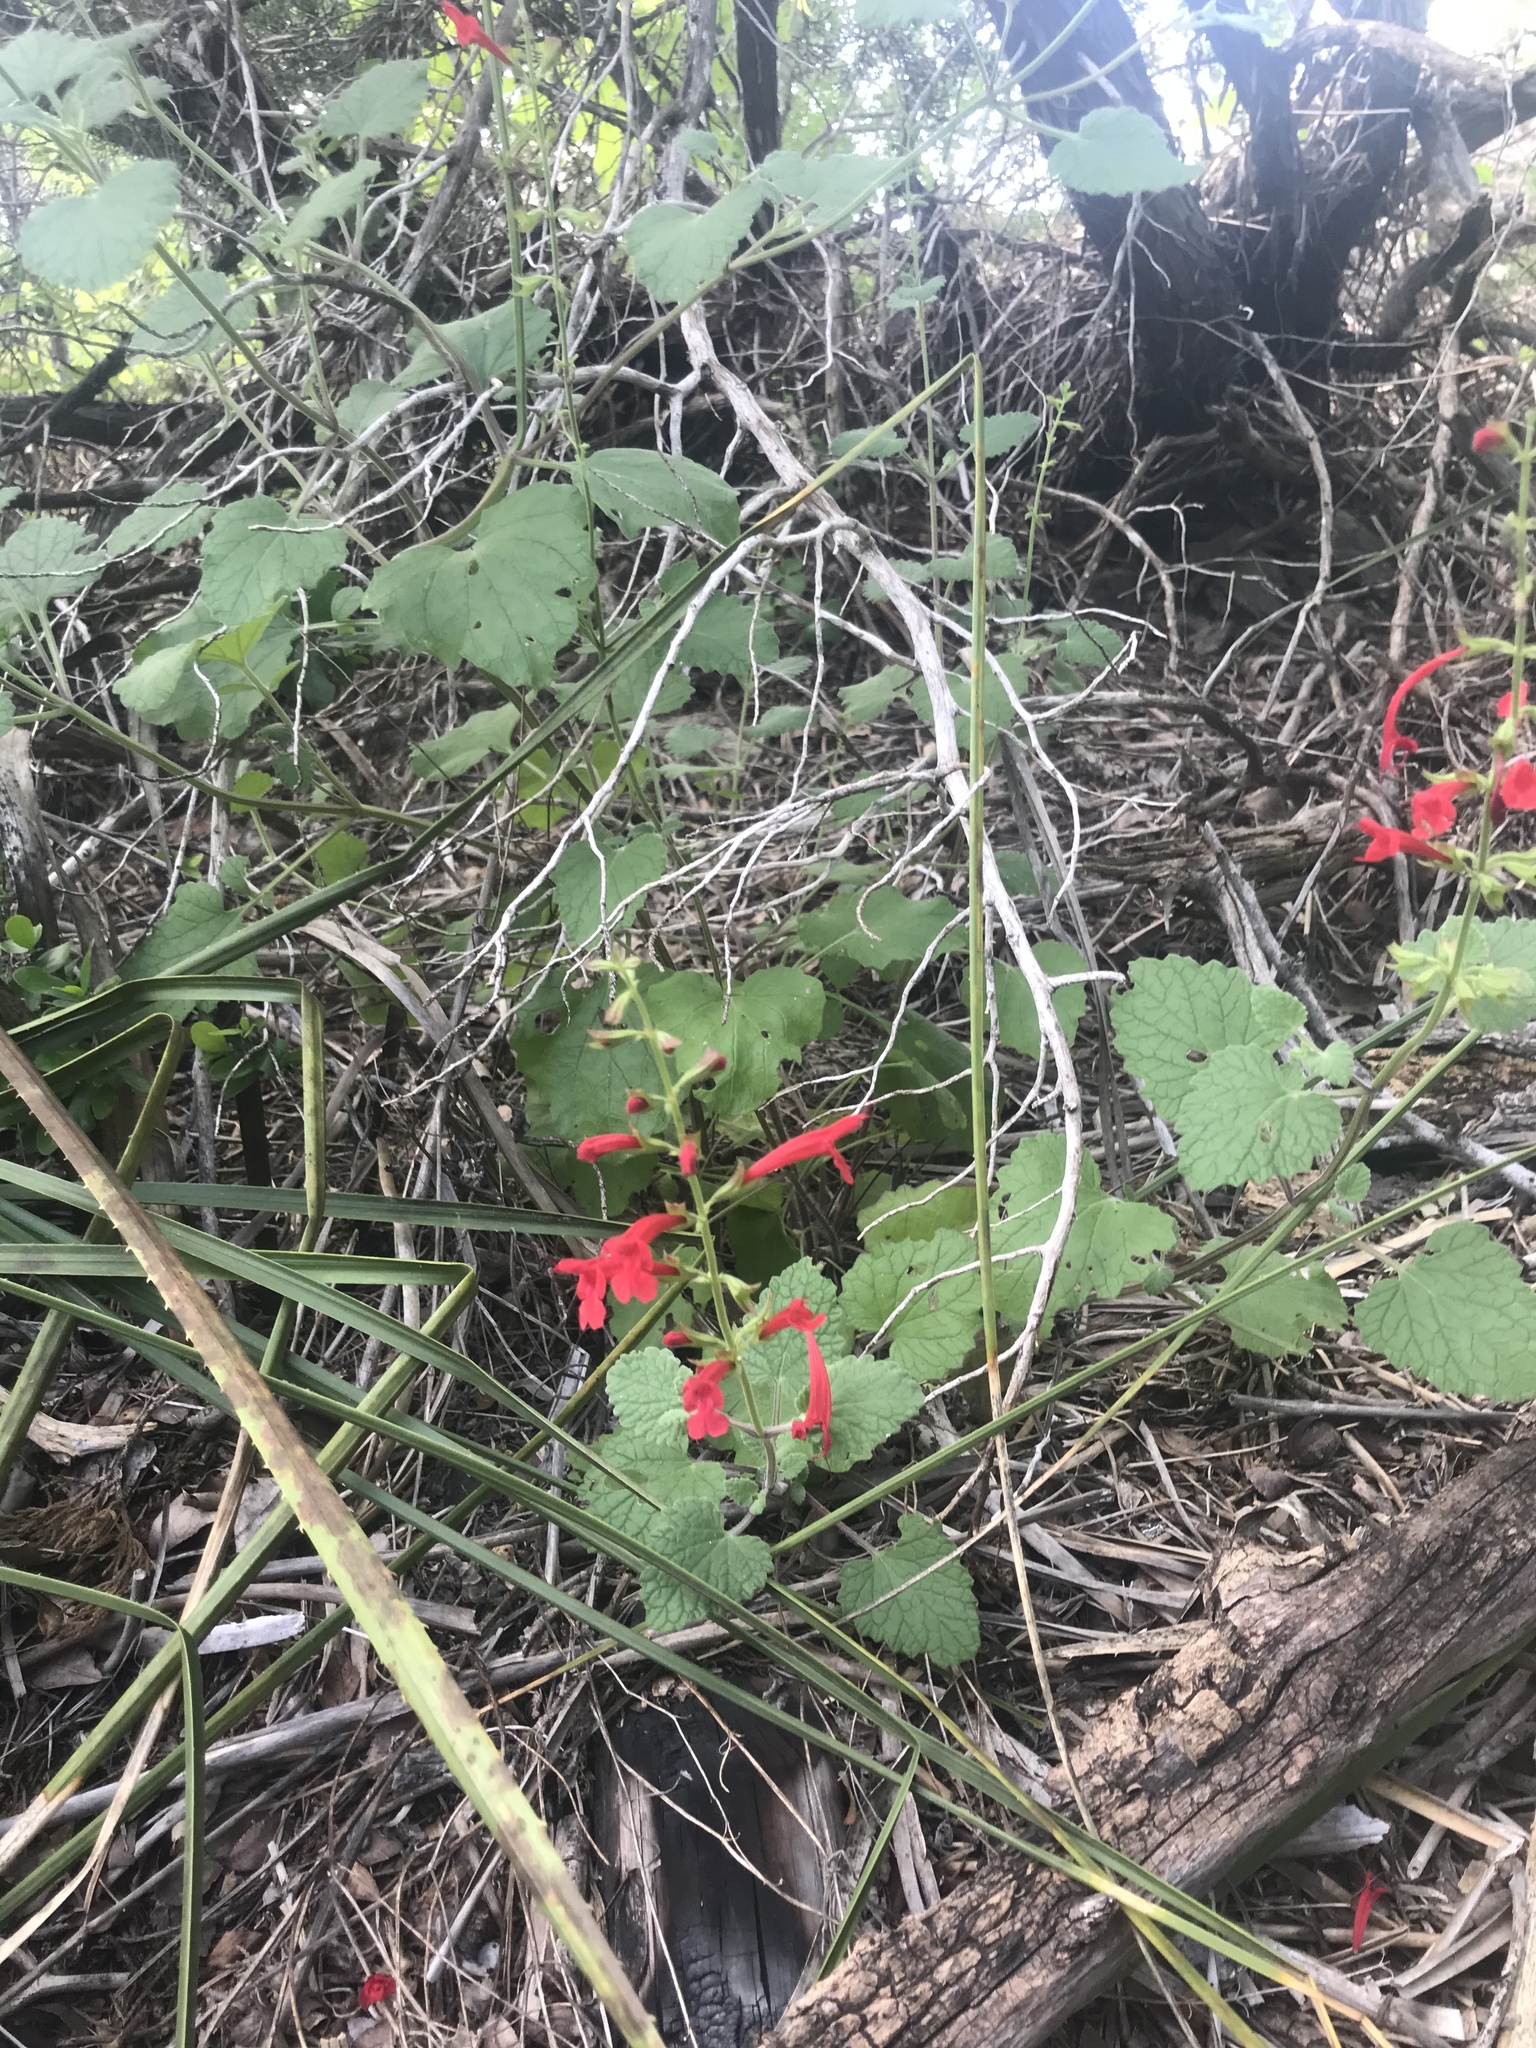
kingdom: Plantae
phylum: Tracheophyta
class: Magnoliopsida
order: Lamiales
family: Lamiaceae
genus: Salvia
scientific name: Salvia roemeriana
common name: Cedar sage
